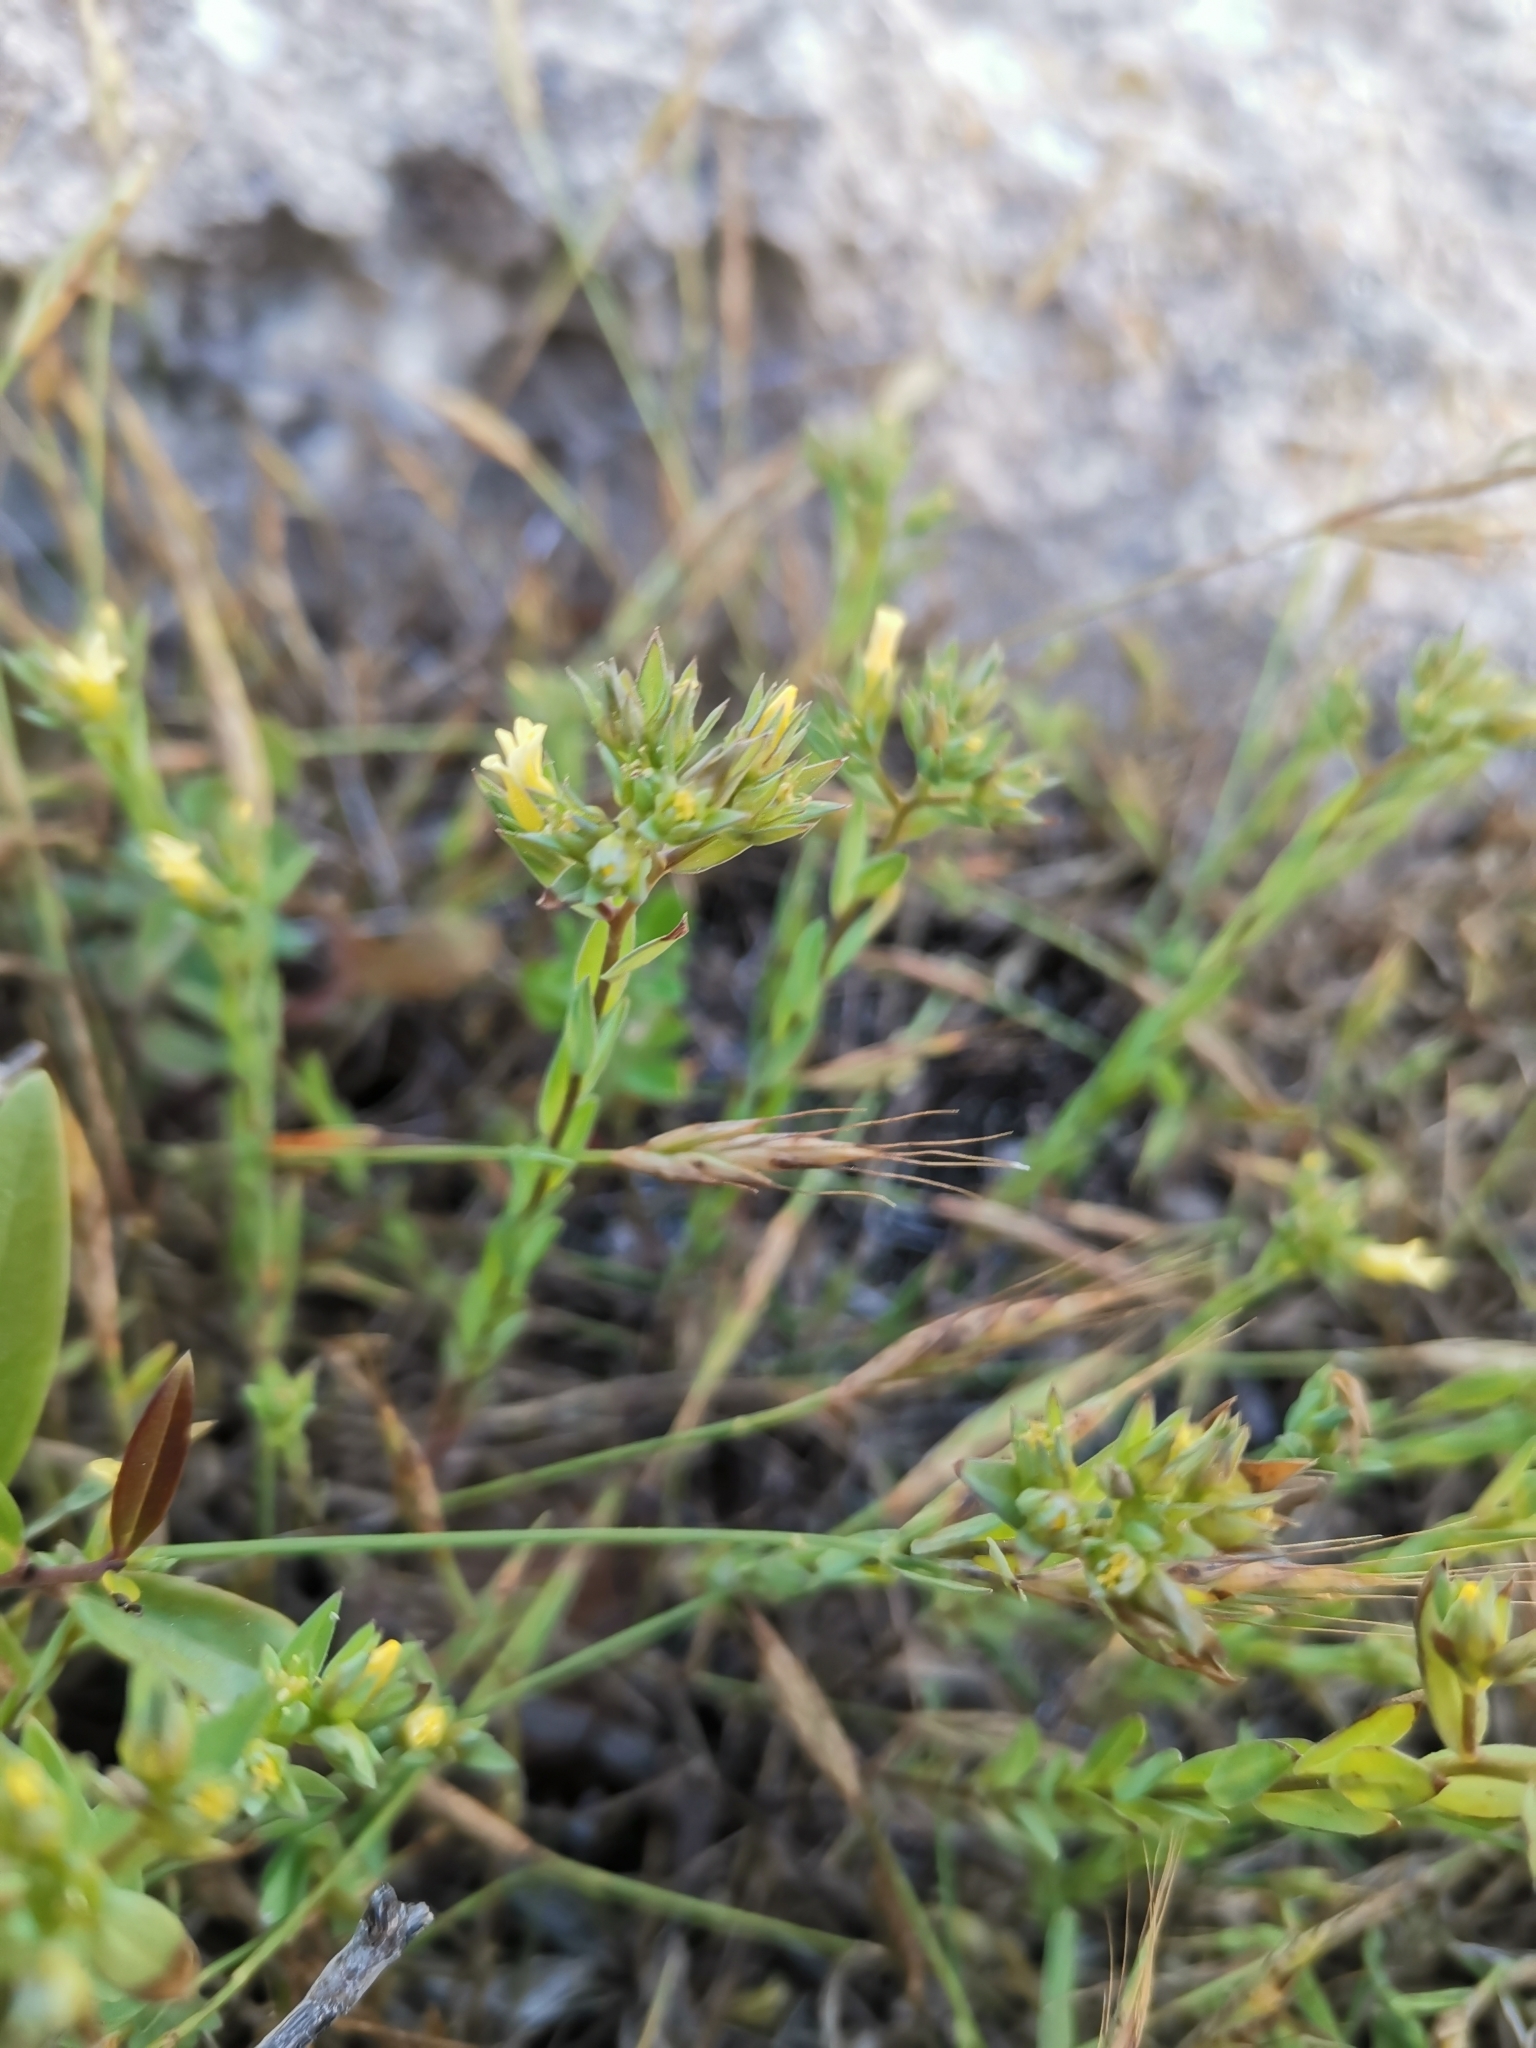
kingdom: Plantae
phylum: Tracheophyta
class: Magnoliopsida
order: Malpighiales
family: Linaceae
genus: Linum
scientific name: Linum strictum
